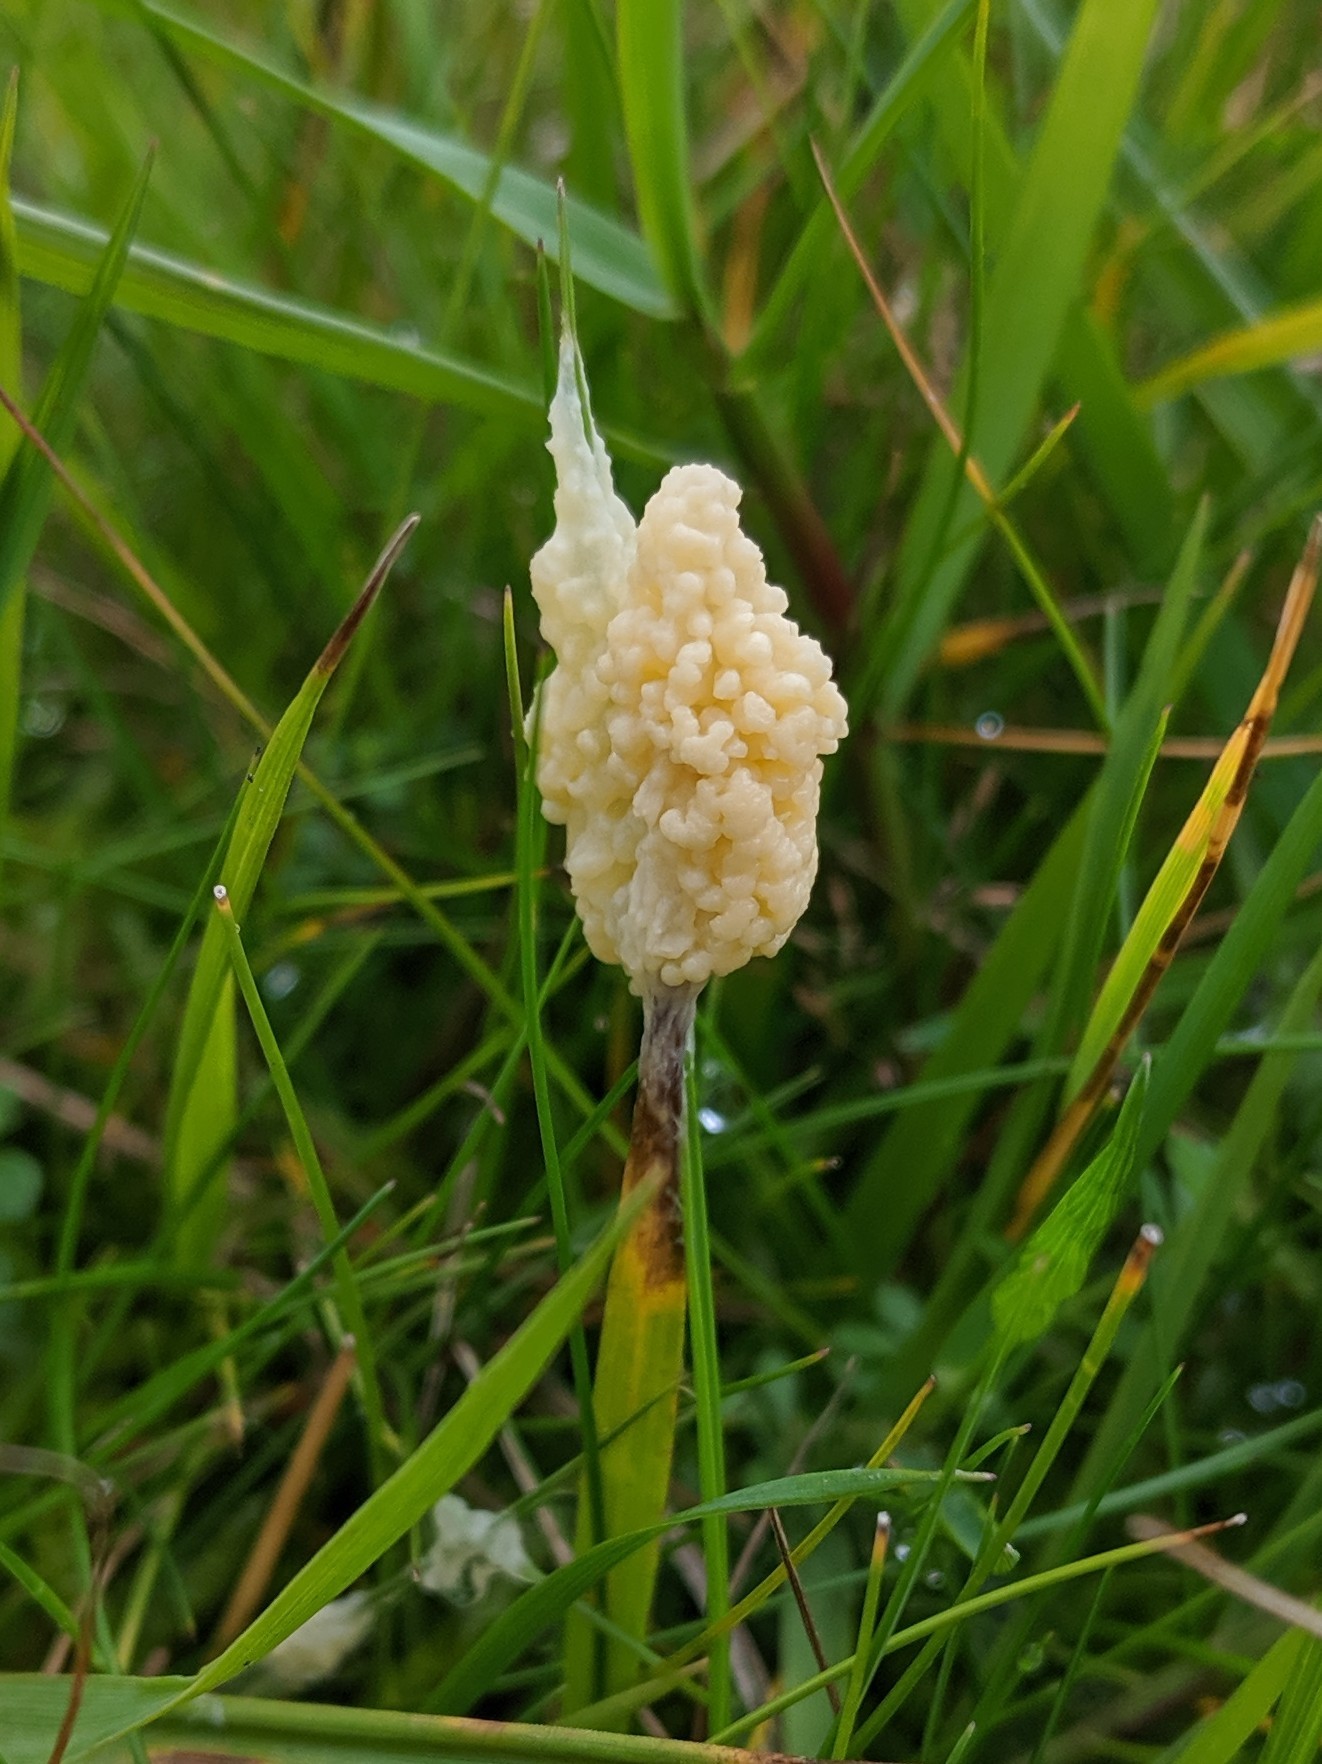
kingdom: Protozoa
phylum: Mycetozoa
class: Myxomycetes
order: Physarales
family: Physaraceae
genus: Didymium
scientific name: Didymium
